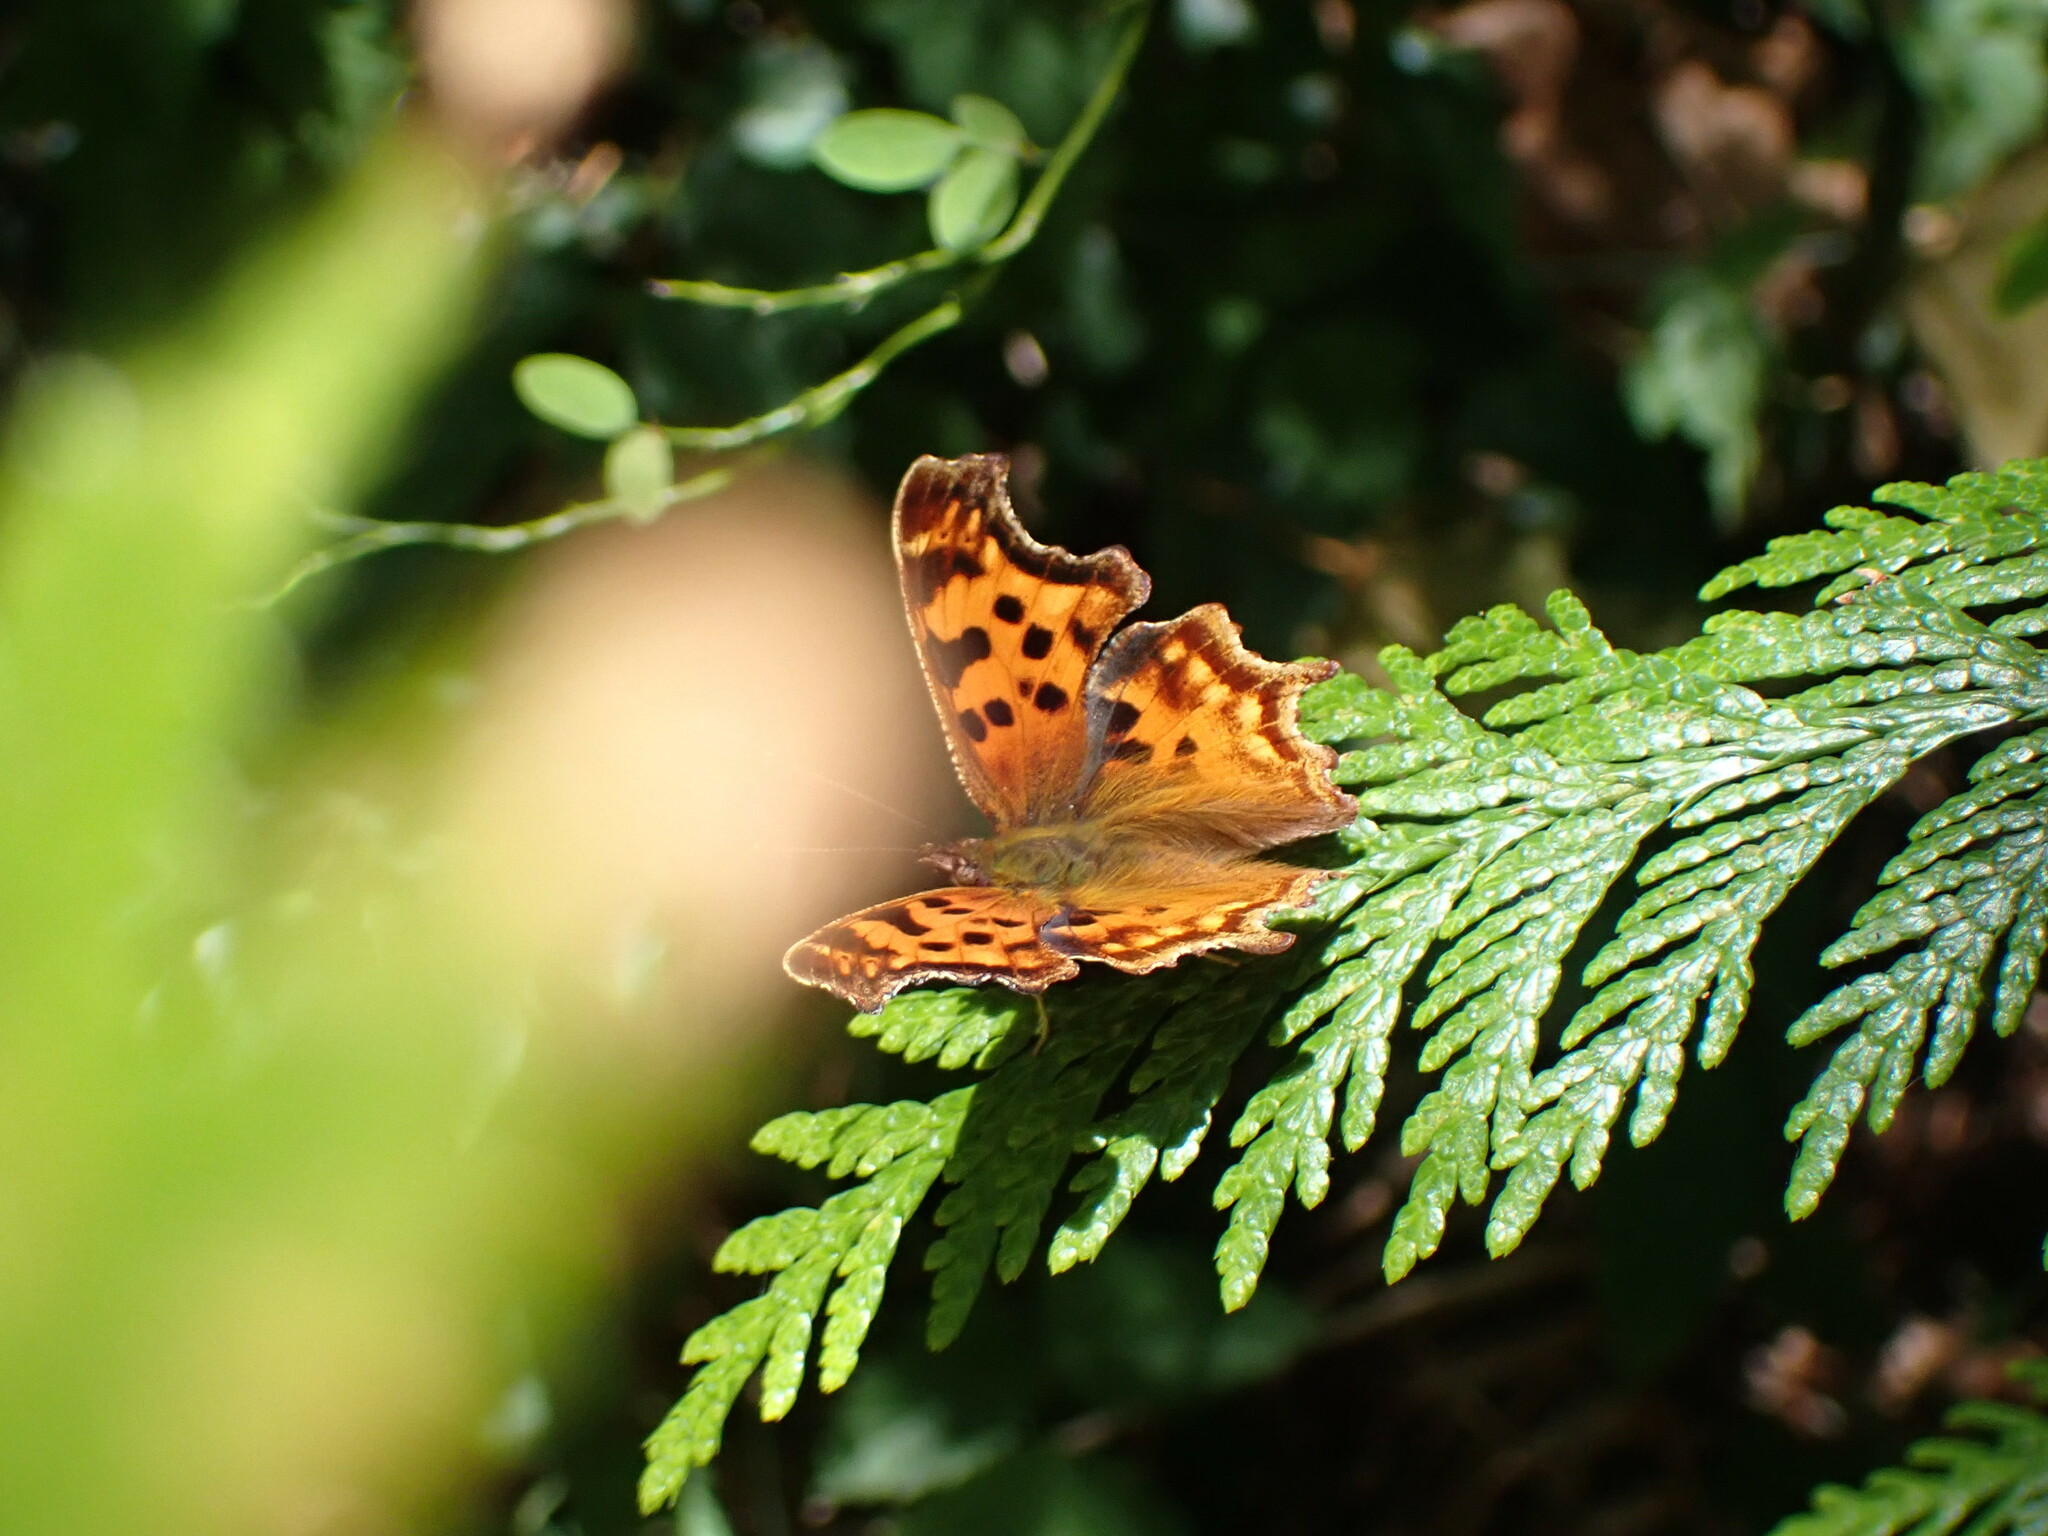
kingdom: Animalia
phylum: Arthropoda
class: Insecta
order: Lepidoptera
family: Nymphalidae
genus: Polygonia
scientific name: Polygonia satyrus
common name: Satyr angle wing
